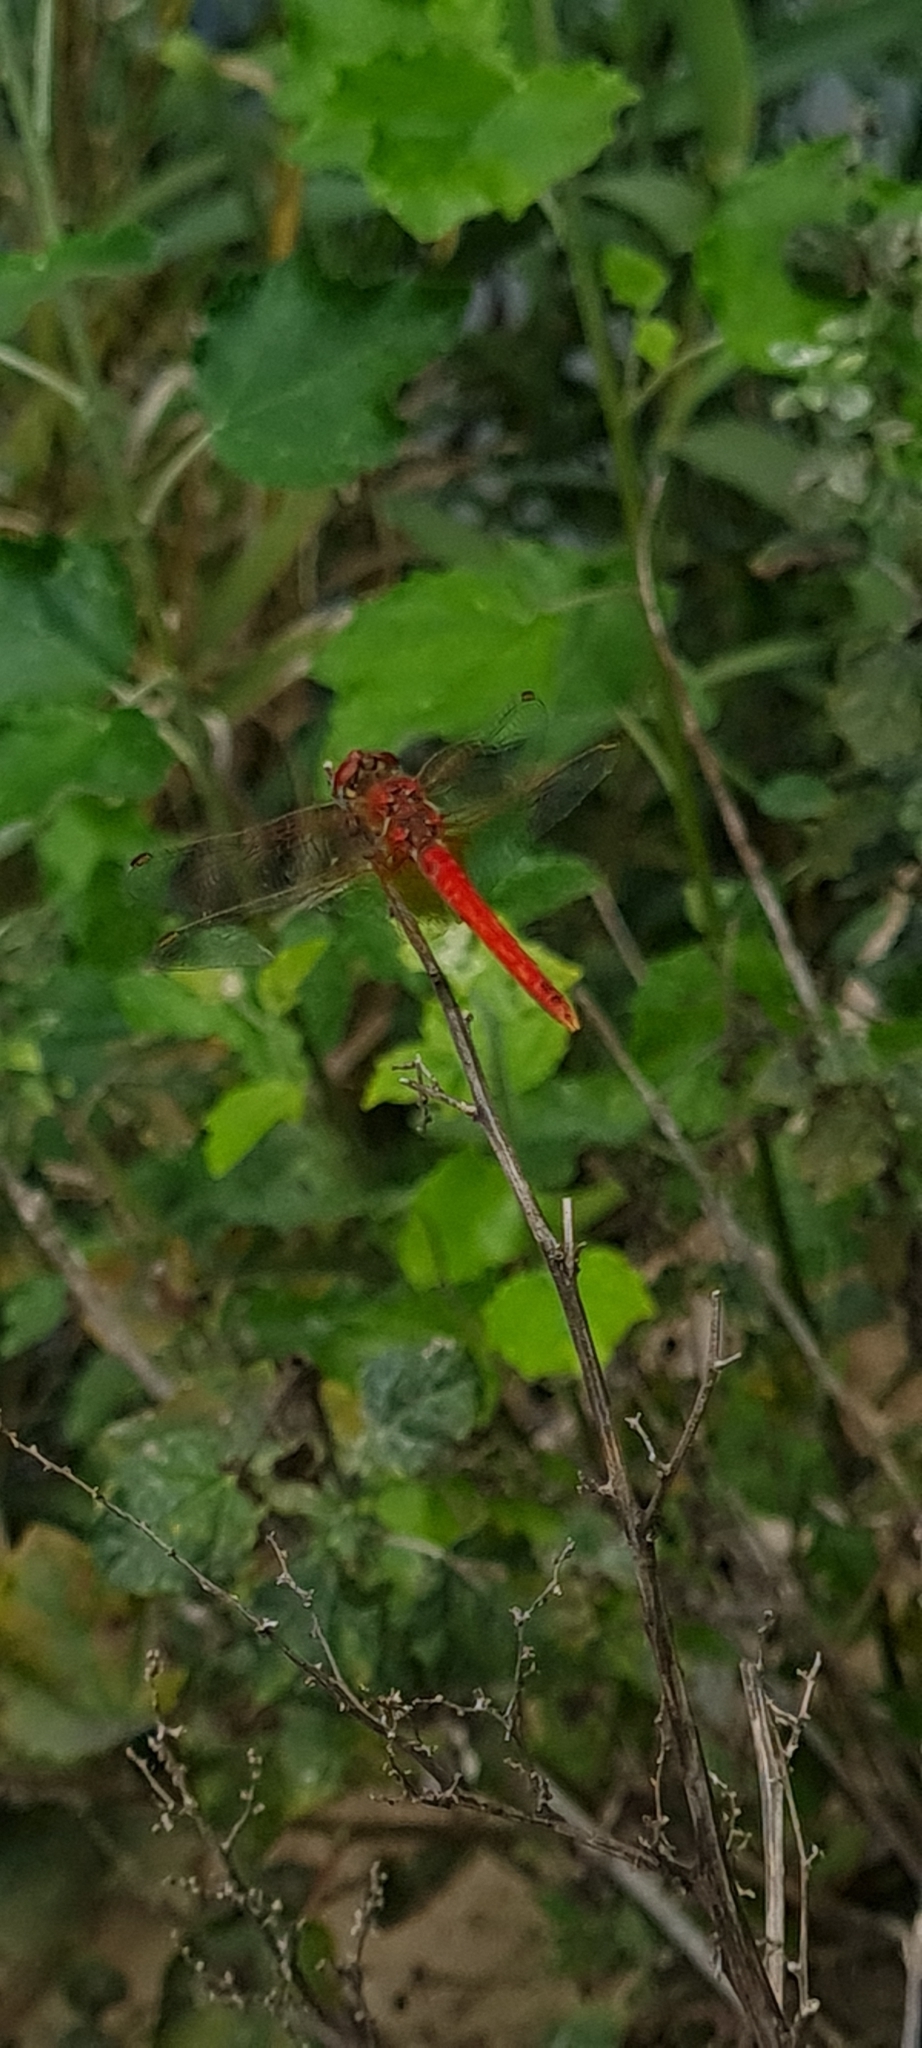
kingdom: Animalia
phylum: Arthropoda
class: Insecta
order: Odonata
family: Libellulidae
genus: Sympetrum
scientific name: Sympetrum fonscolombii
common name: Red-veined darter
